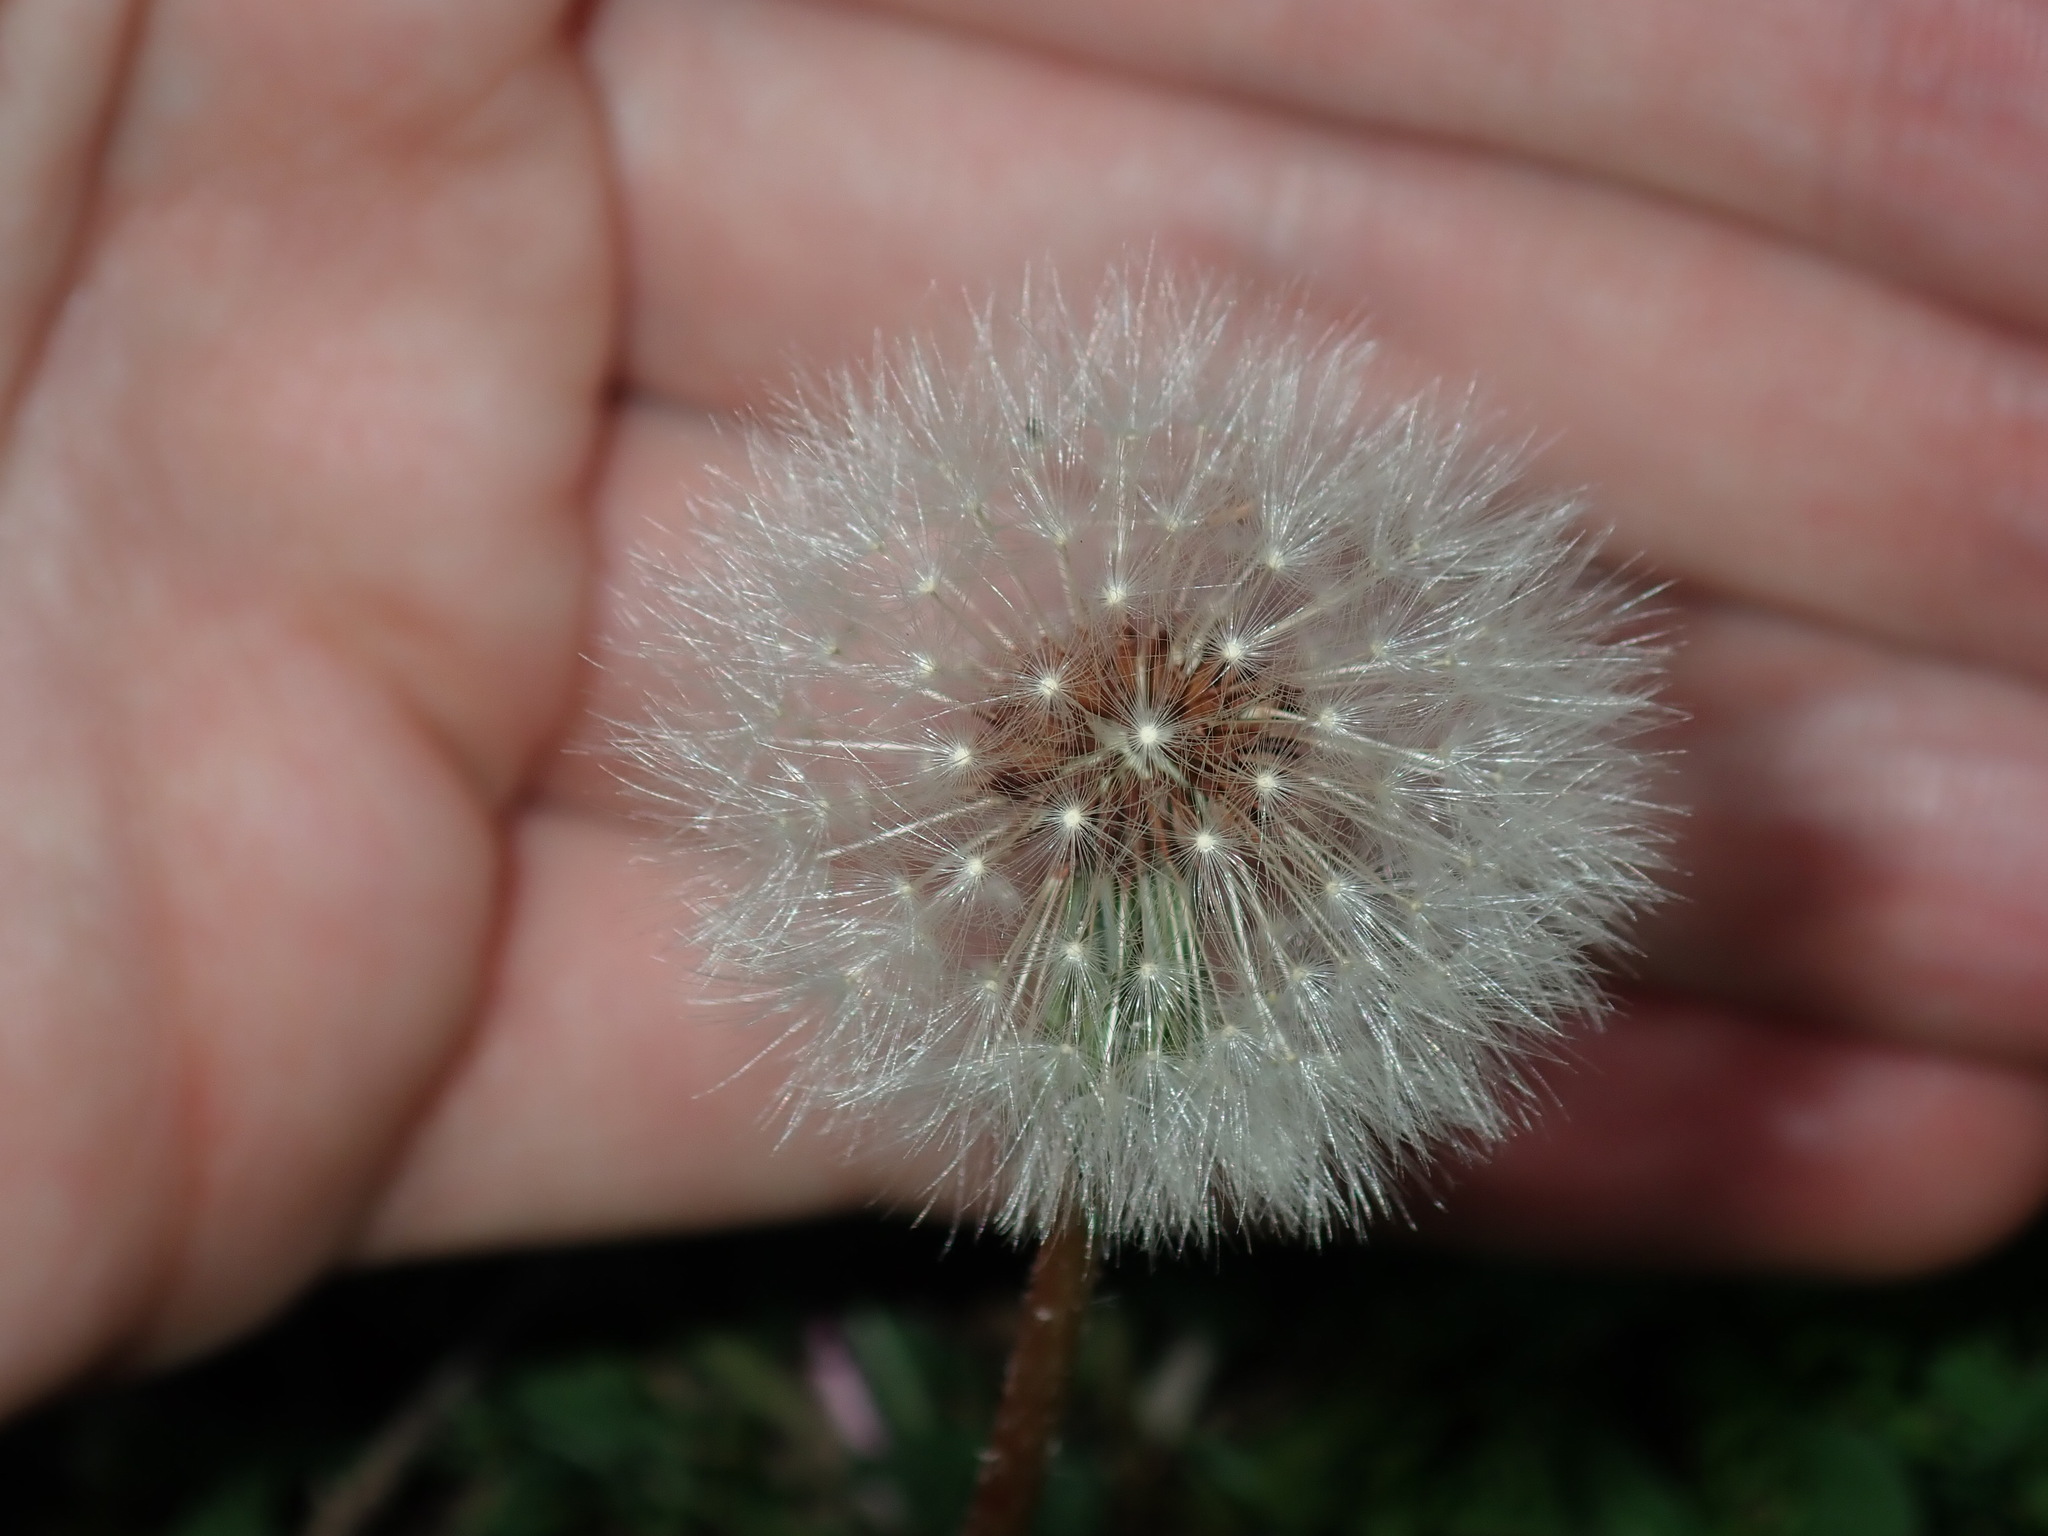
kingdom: Plantae
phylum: Tracheophyta
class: Magnoliopsida
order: Asterales
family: Asteraceae
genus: Taraxacum
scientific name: Taraxacum officinale
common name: Common dandelion
